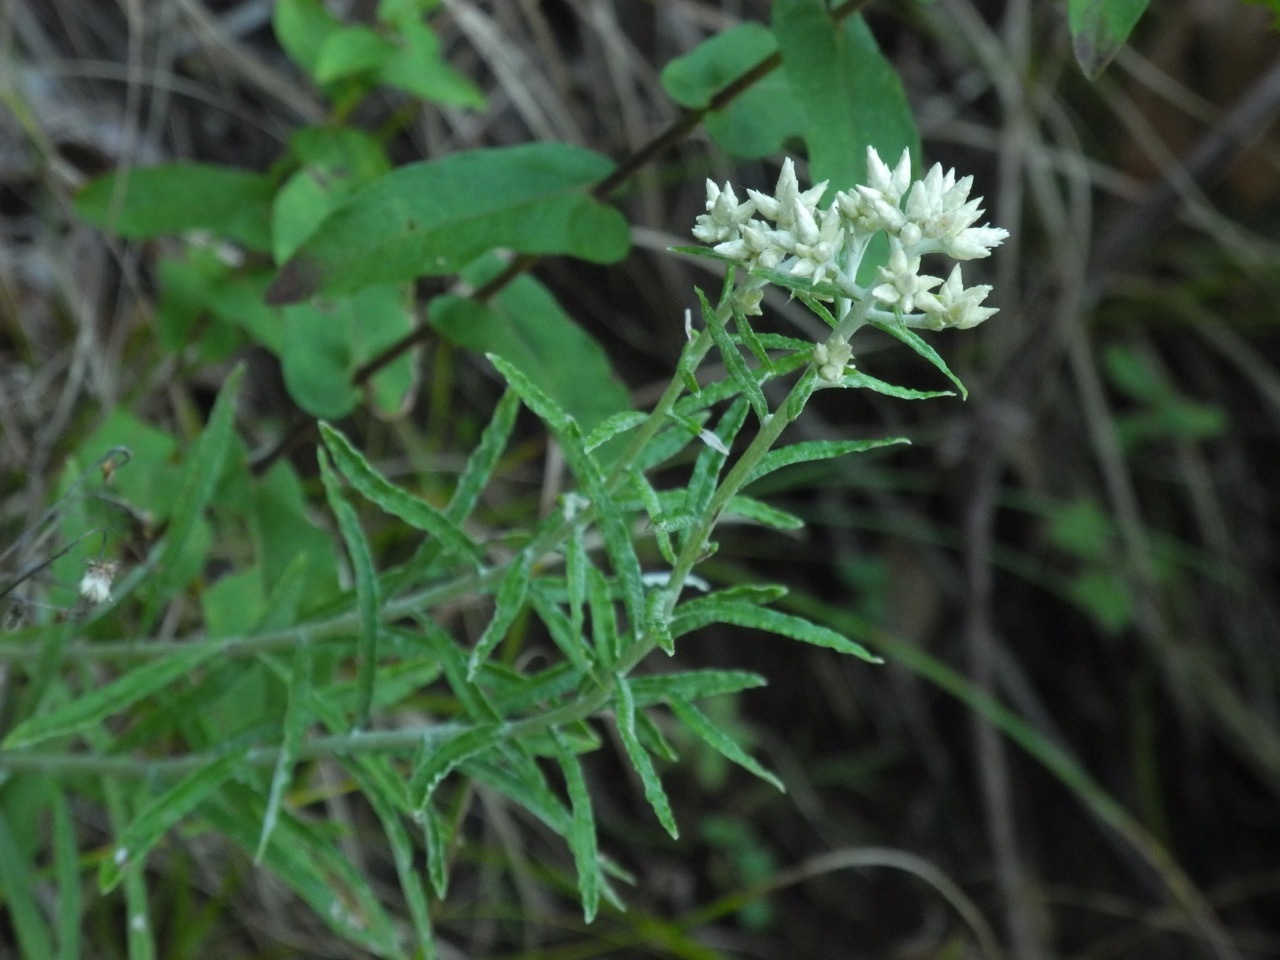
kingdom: Plantae
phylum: Tracheophyta
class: Magnoliopsida
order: Asterales
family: Asteraceae
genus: Pseudognaphalium
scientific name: Pseudognaphalium obtusifolium
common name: Eastern rabbit-tobacco
